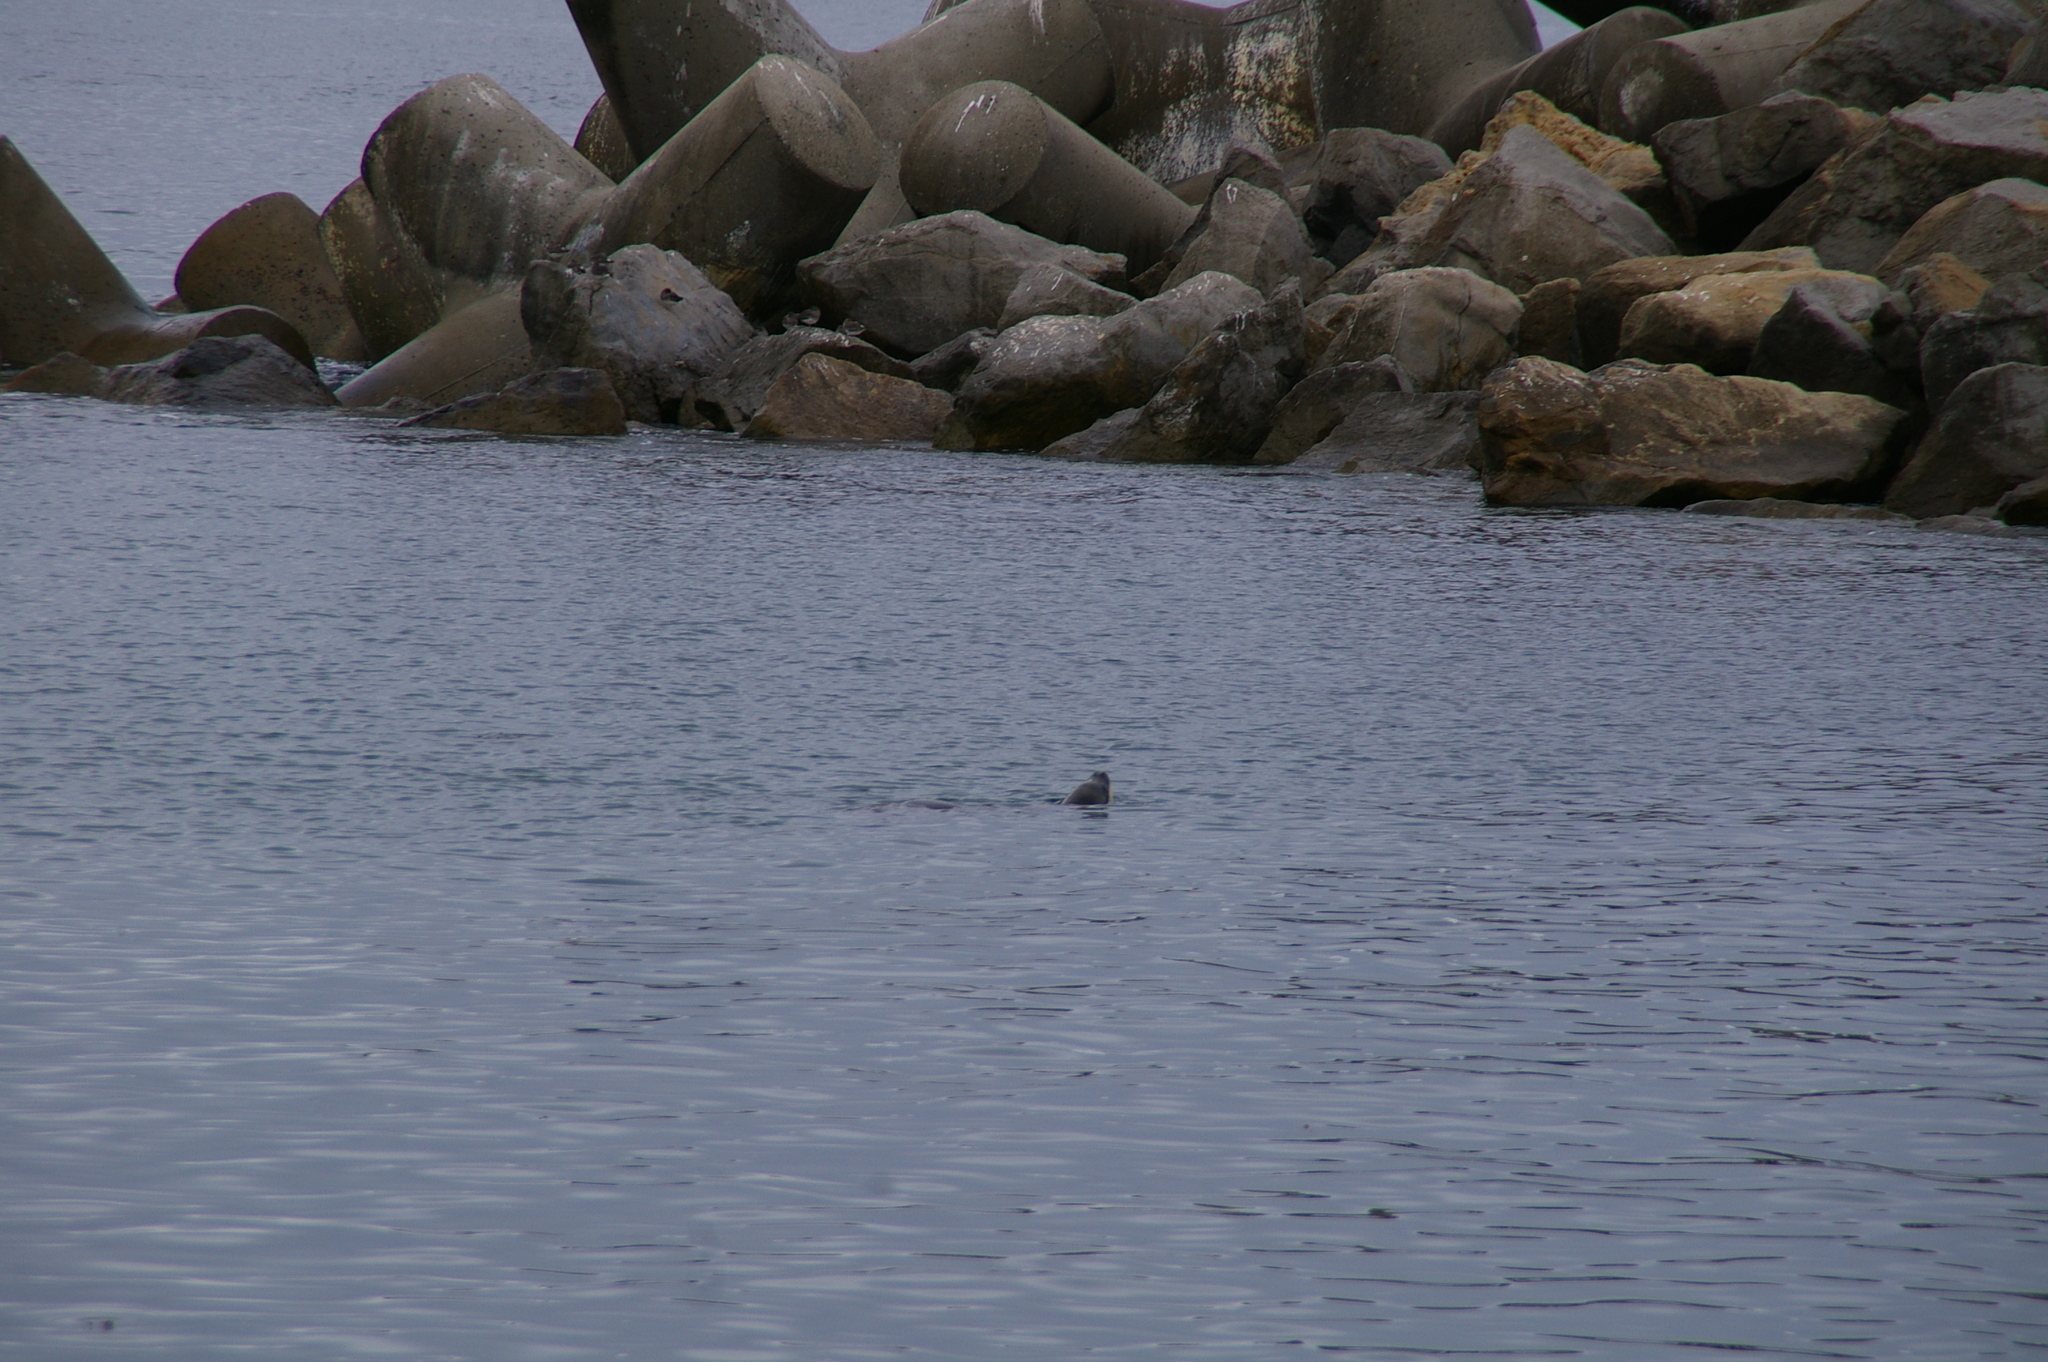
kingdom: Animalia
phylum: Chordata
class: Mammalia
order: Carnivora
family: Otariidae
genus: Zalophus
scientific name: Zalophus californianus
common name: California sea lion
